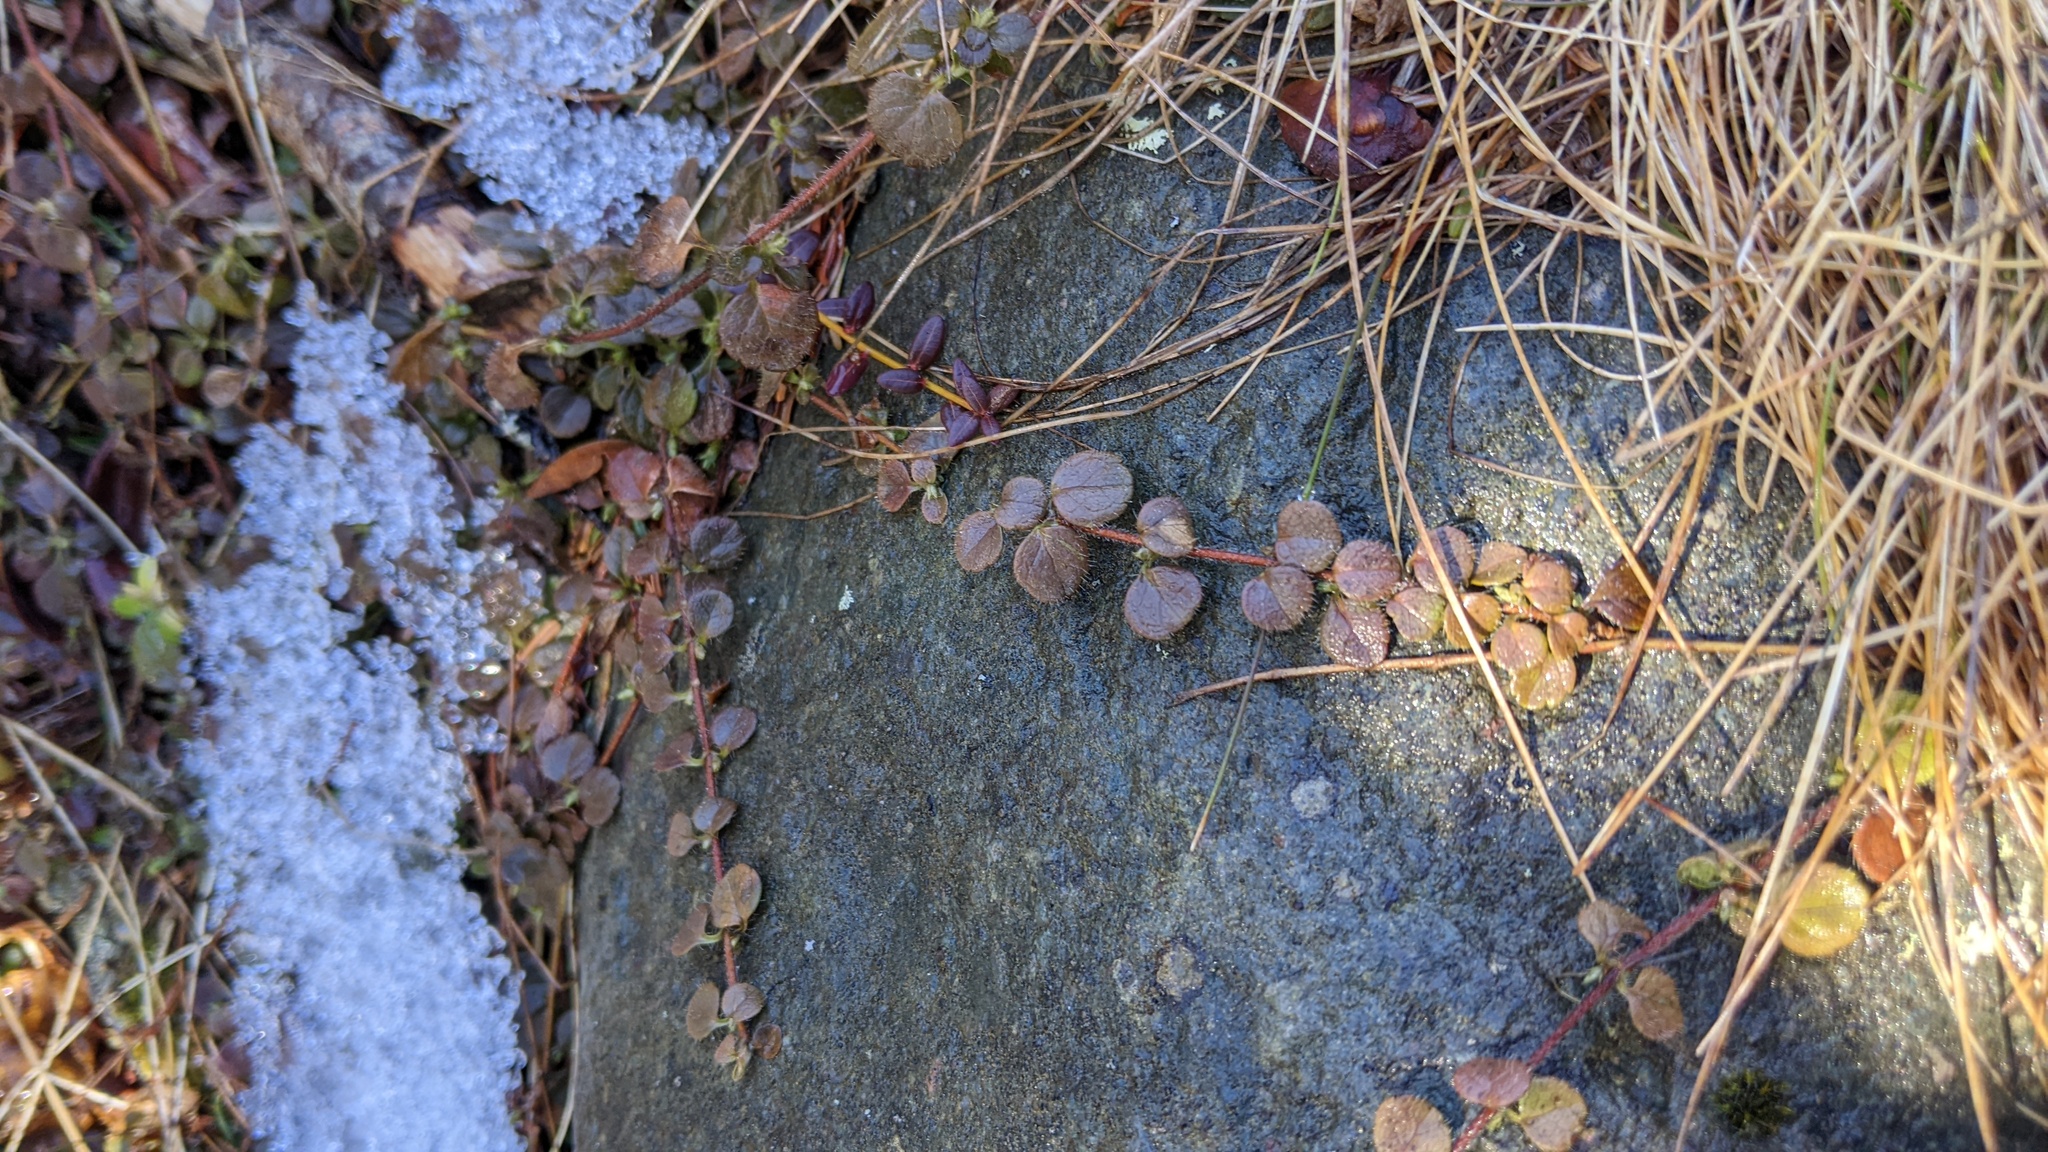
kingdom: Plantae
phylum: Tracheophyta
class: Magnoliopsida
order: Dipsacales
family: Caprifoliaceae
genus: Linnaea
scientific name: Linnaea borealis
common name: Twinflower
